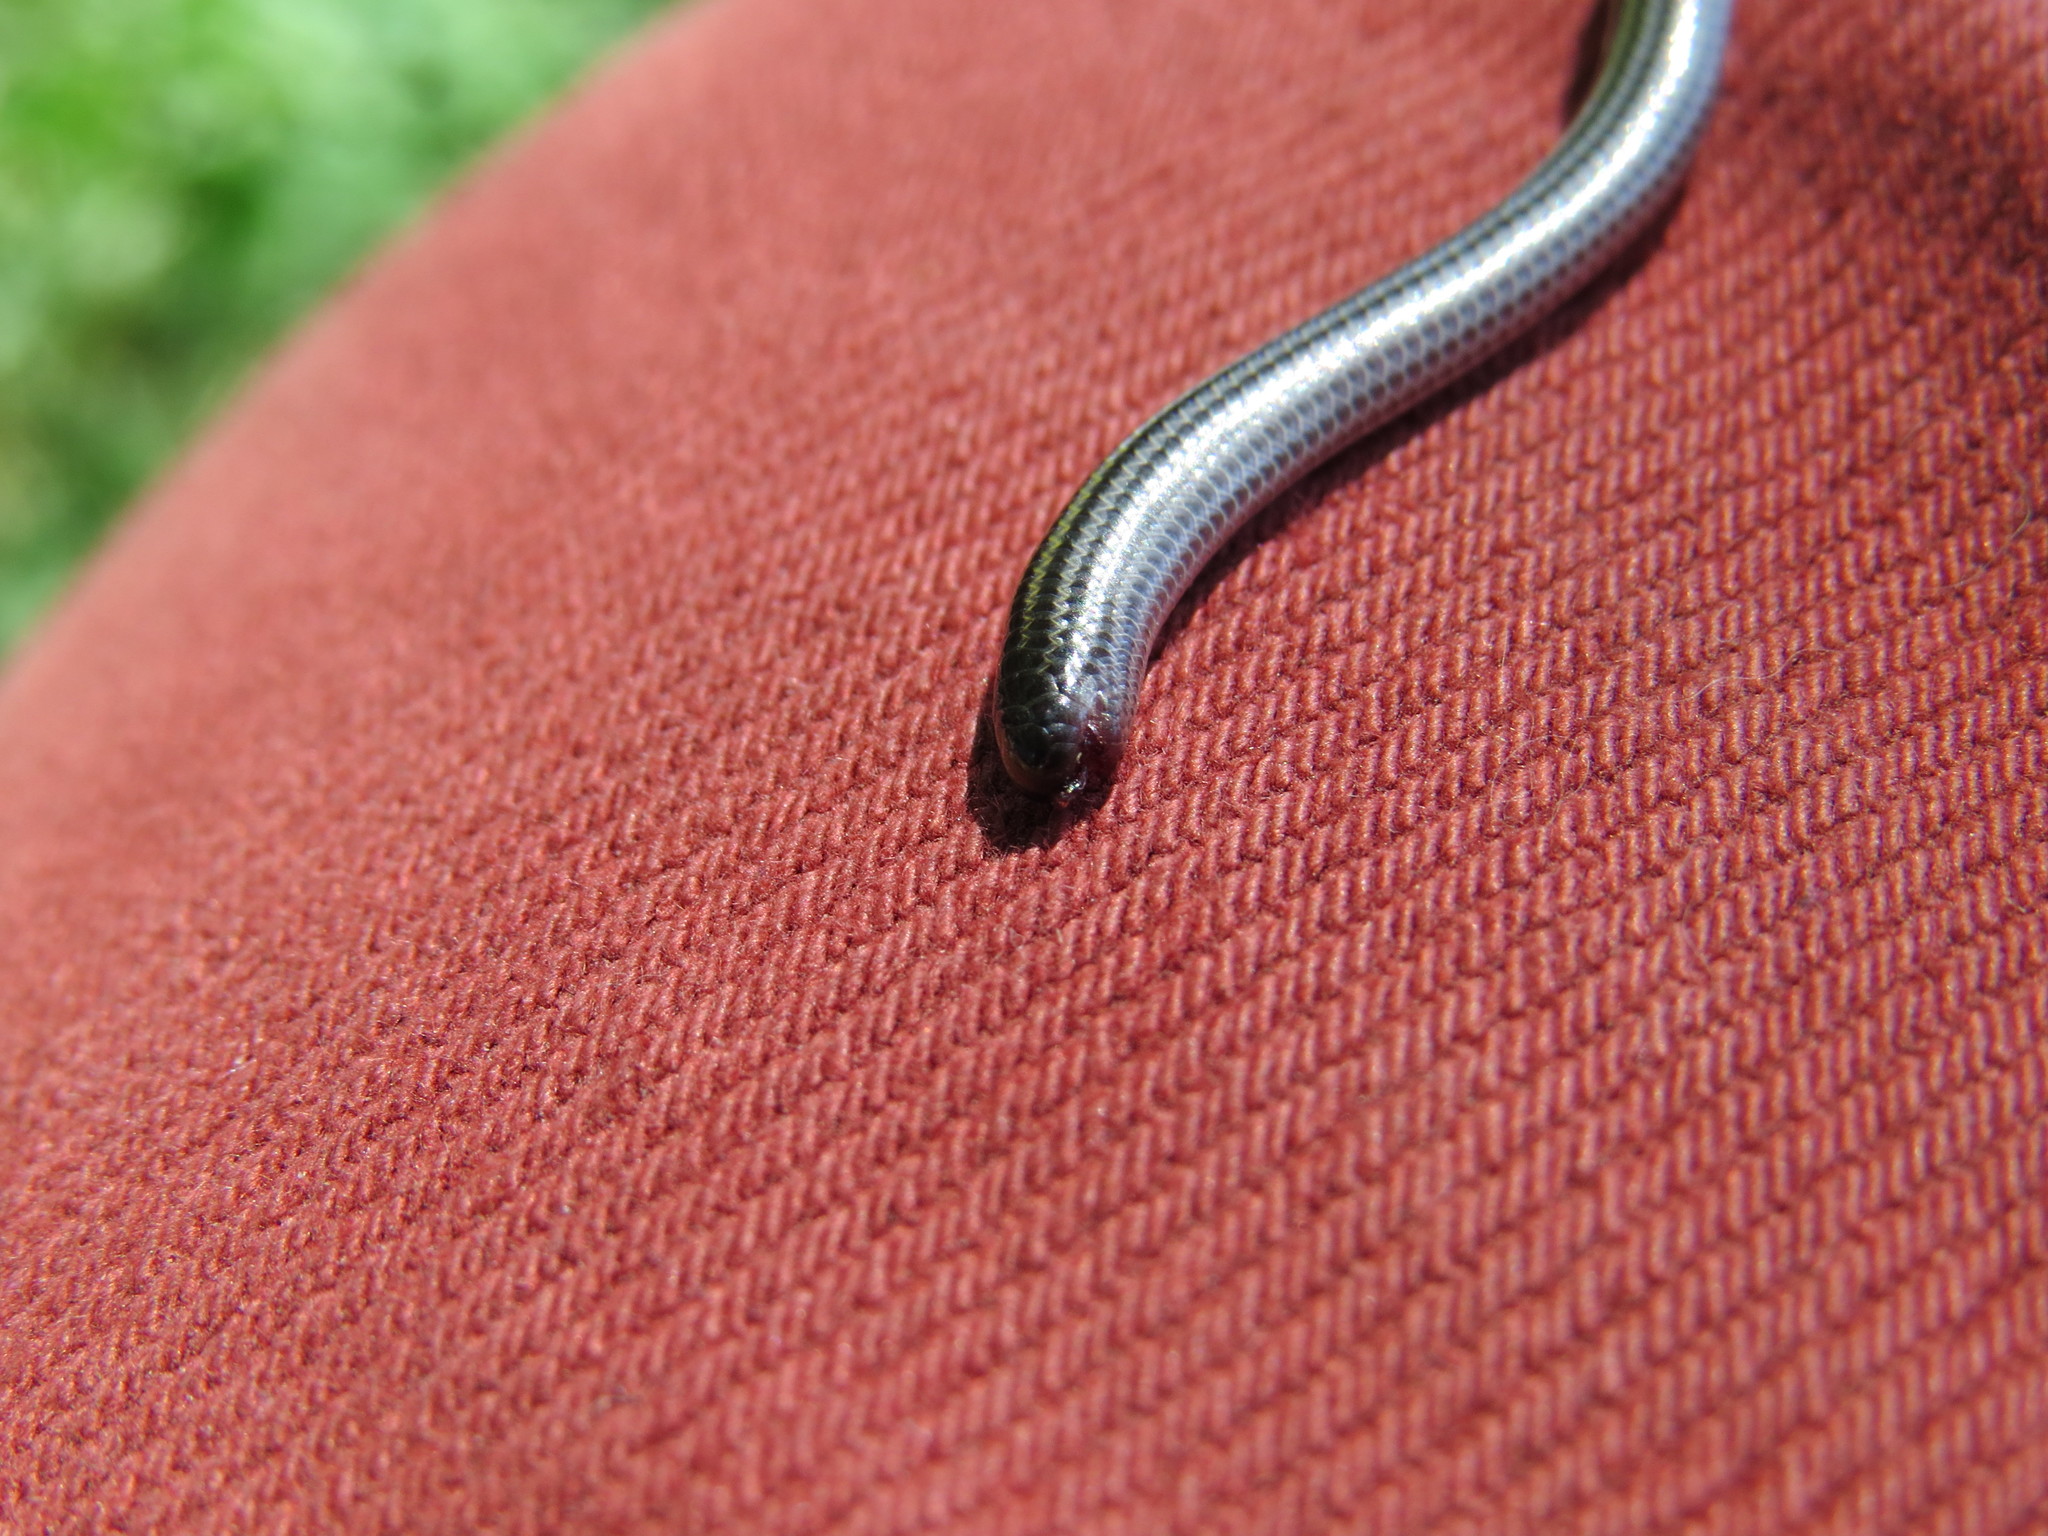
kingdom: Animalia
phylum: Chordata
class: Squamata
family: Leptotyphlopidae
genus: Epictia
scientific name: Epictia munoai
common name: Rio grande do sul blind snake
